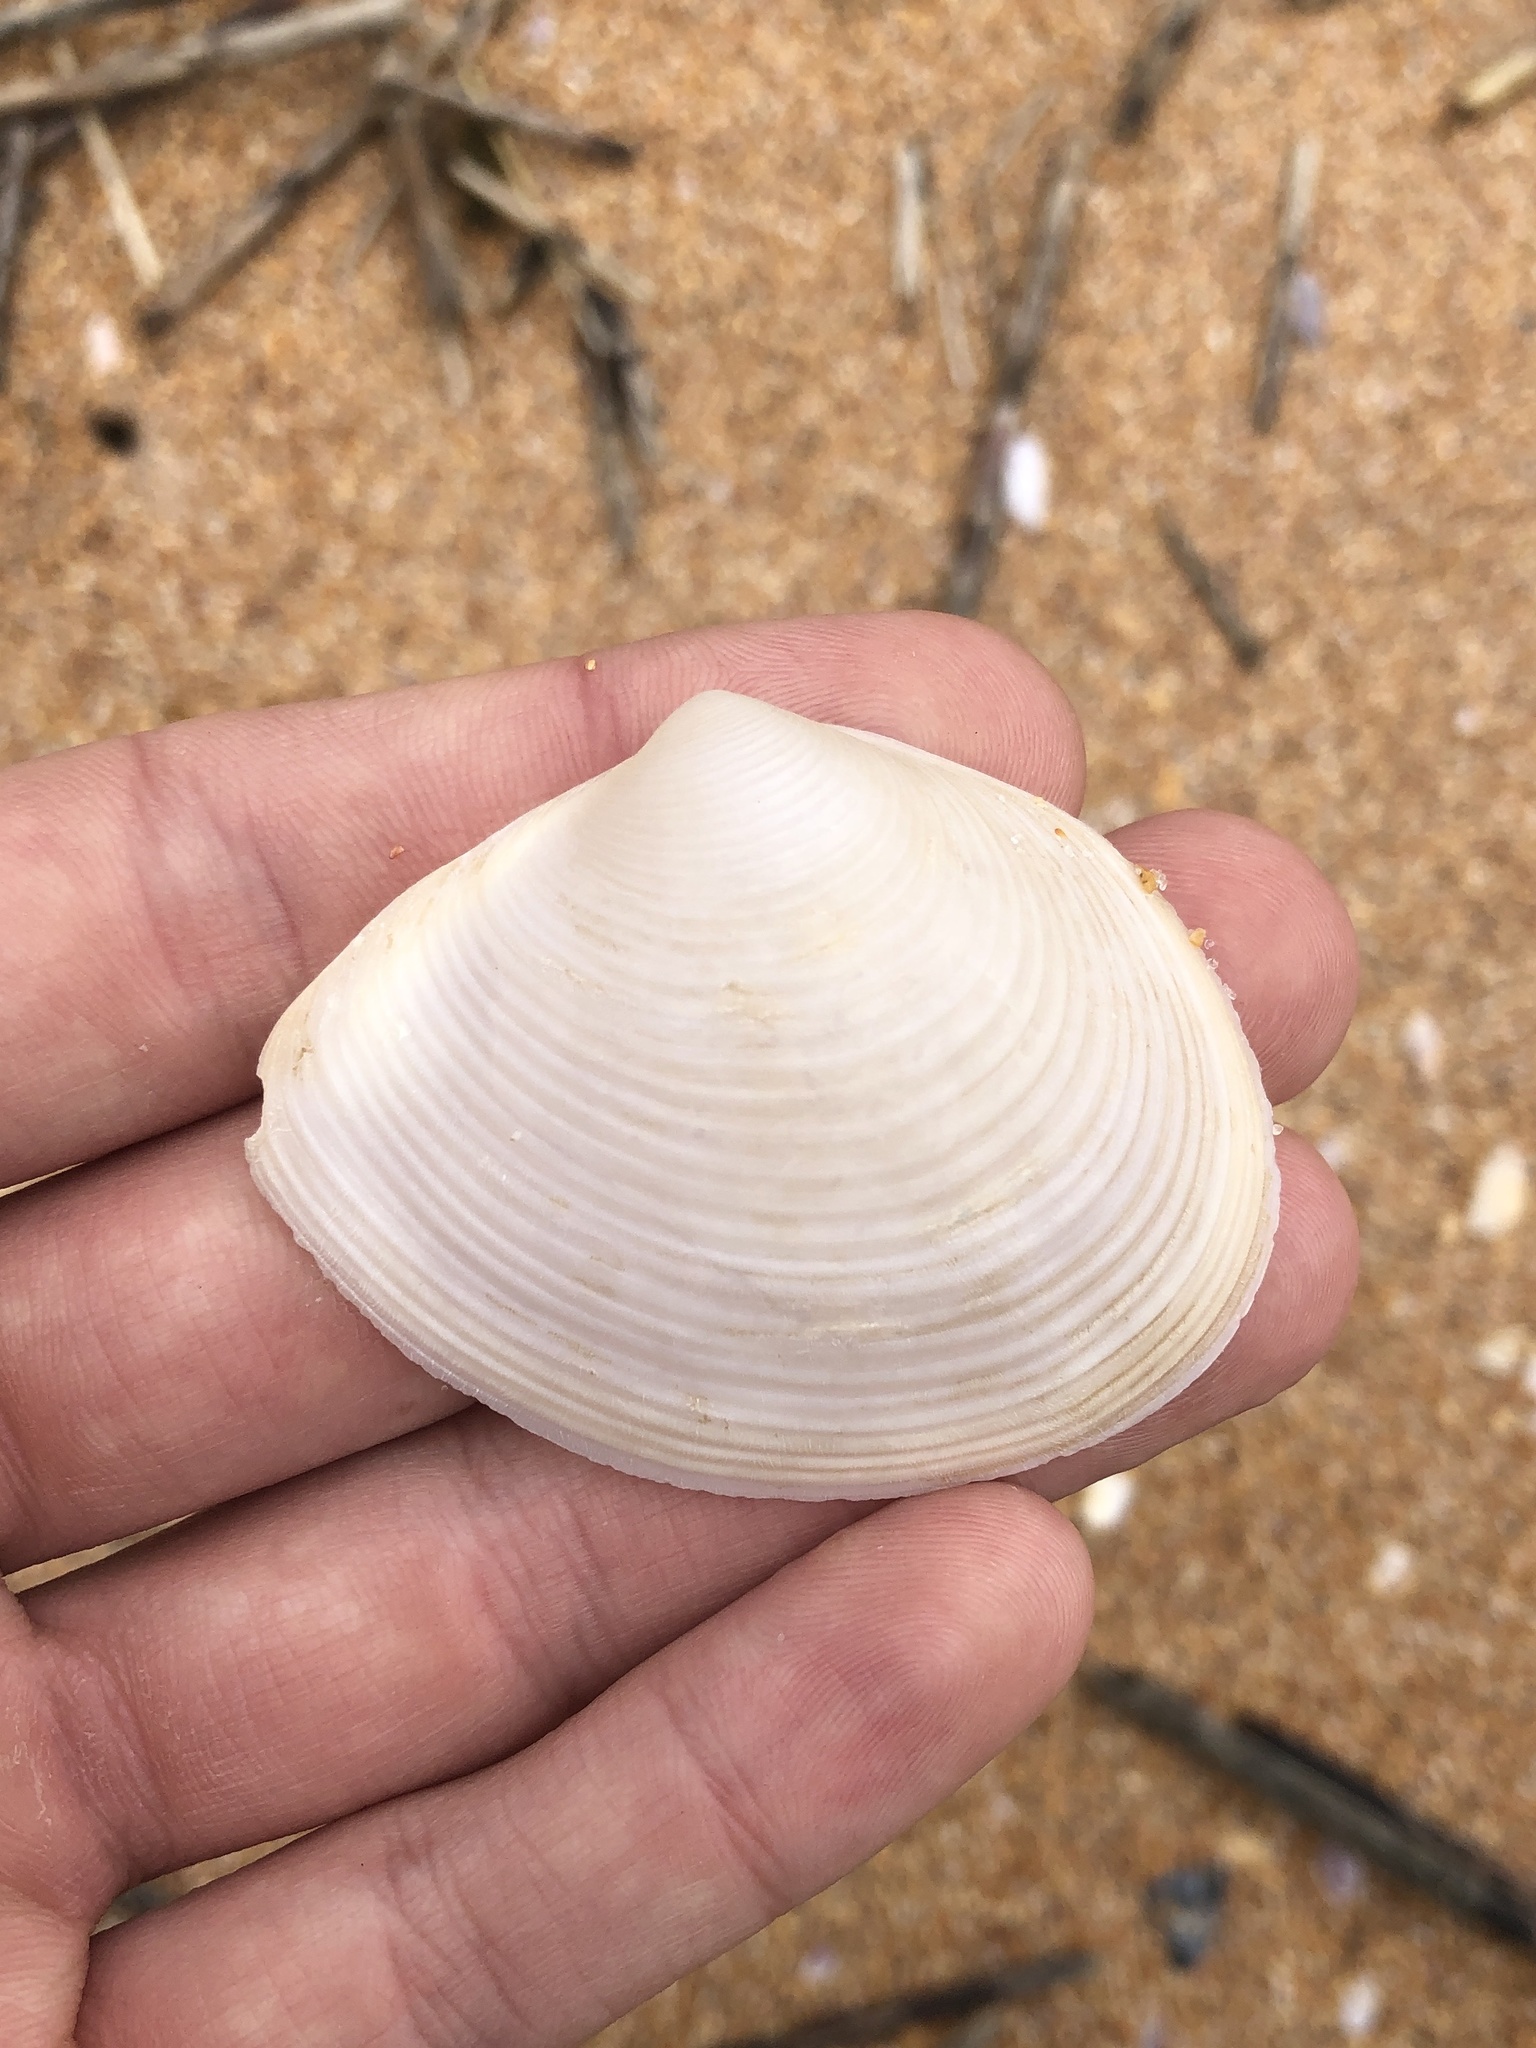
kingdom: Animalia
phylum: Mollusca
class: Bivalvia
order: Venerida
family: Anatinellidae
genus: Raeta
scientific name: Raeta plicatella
